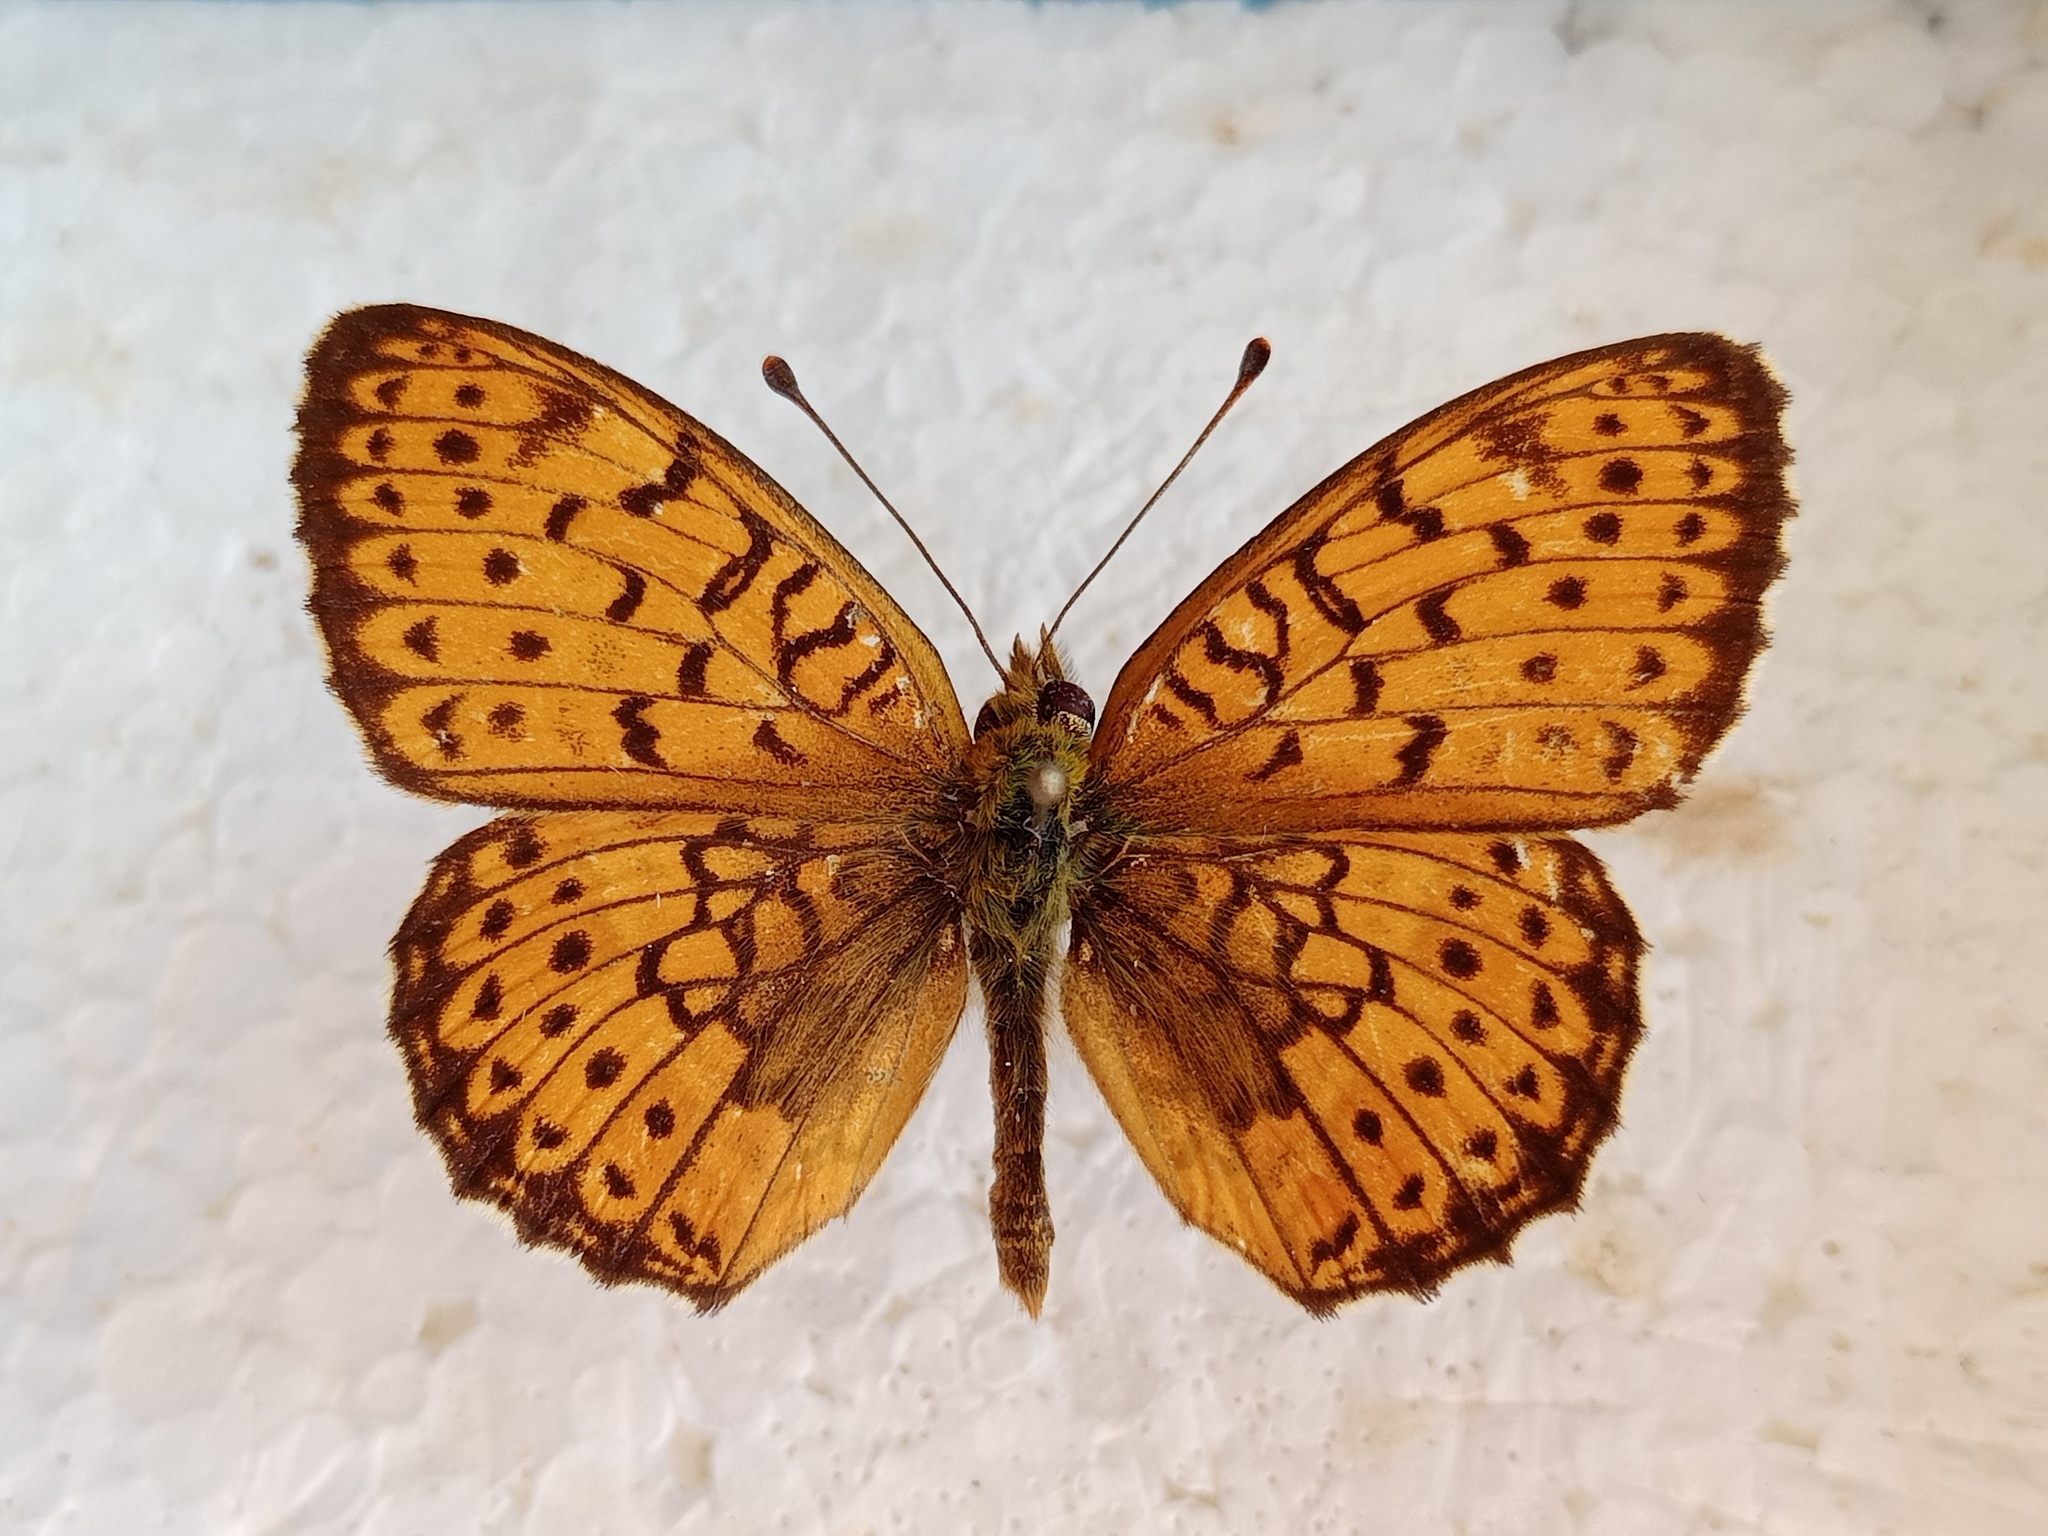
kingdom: Animalia
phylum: Arthropoda
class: Insecta
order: Lepidoptera
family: Nymphalidae
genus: Brenthis
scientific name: Brenthis hecate
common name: Twin-spot fritillary
